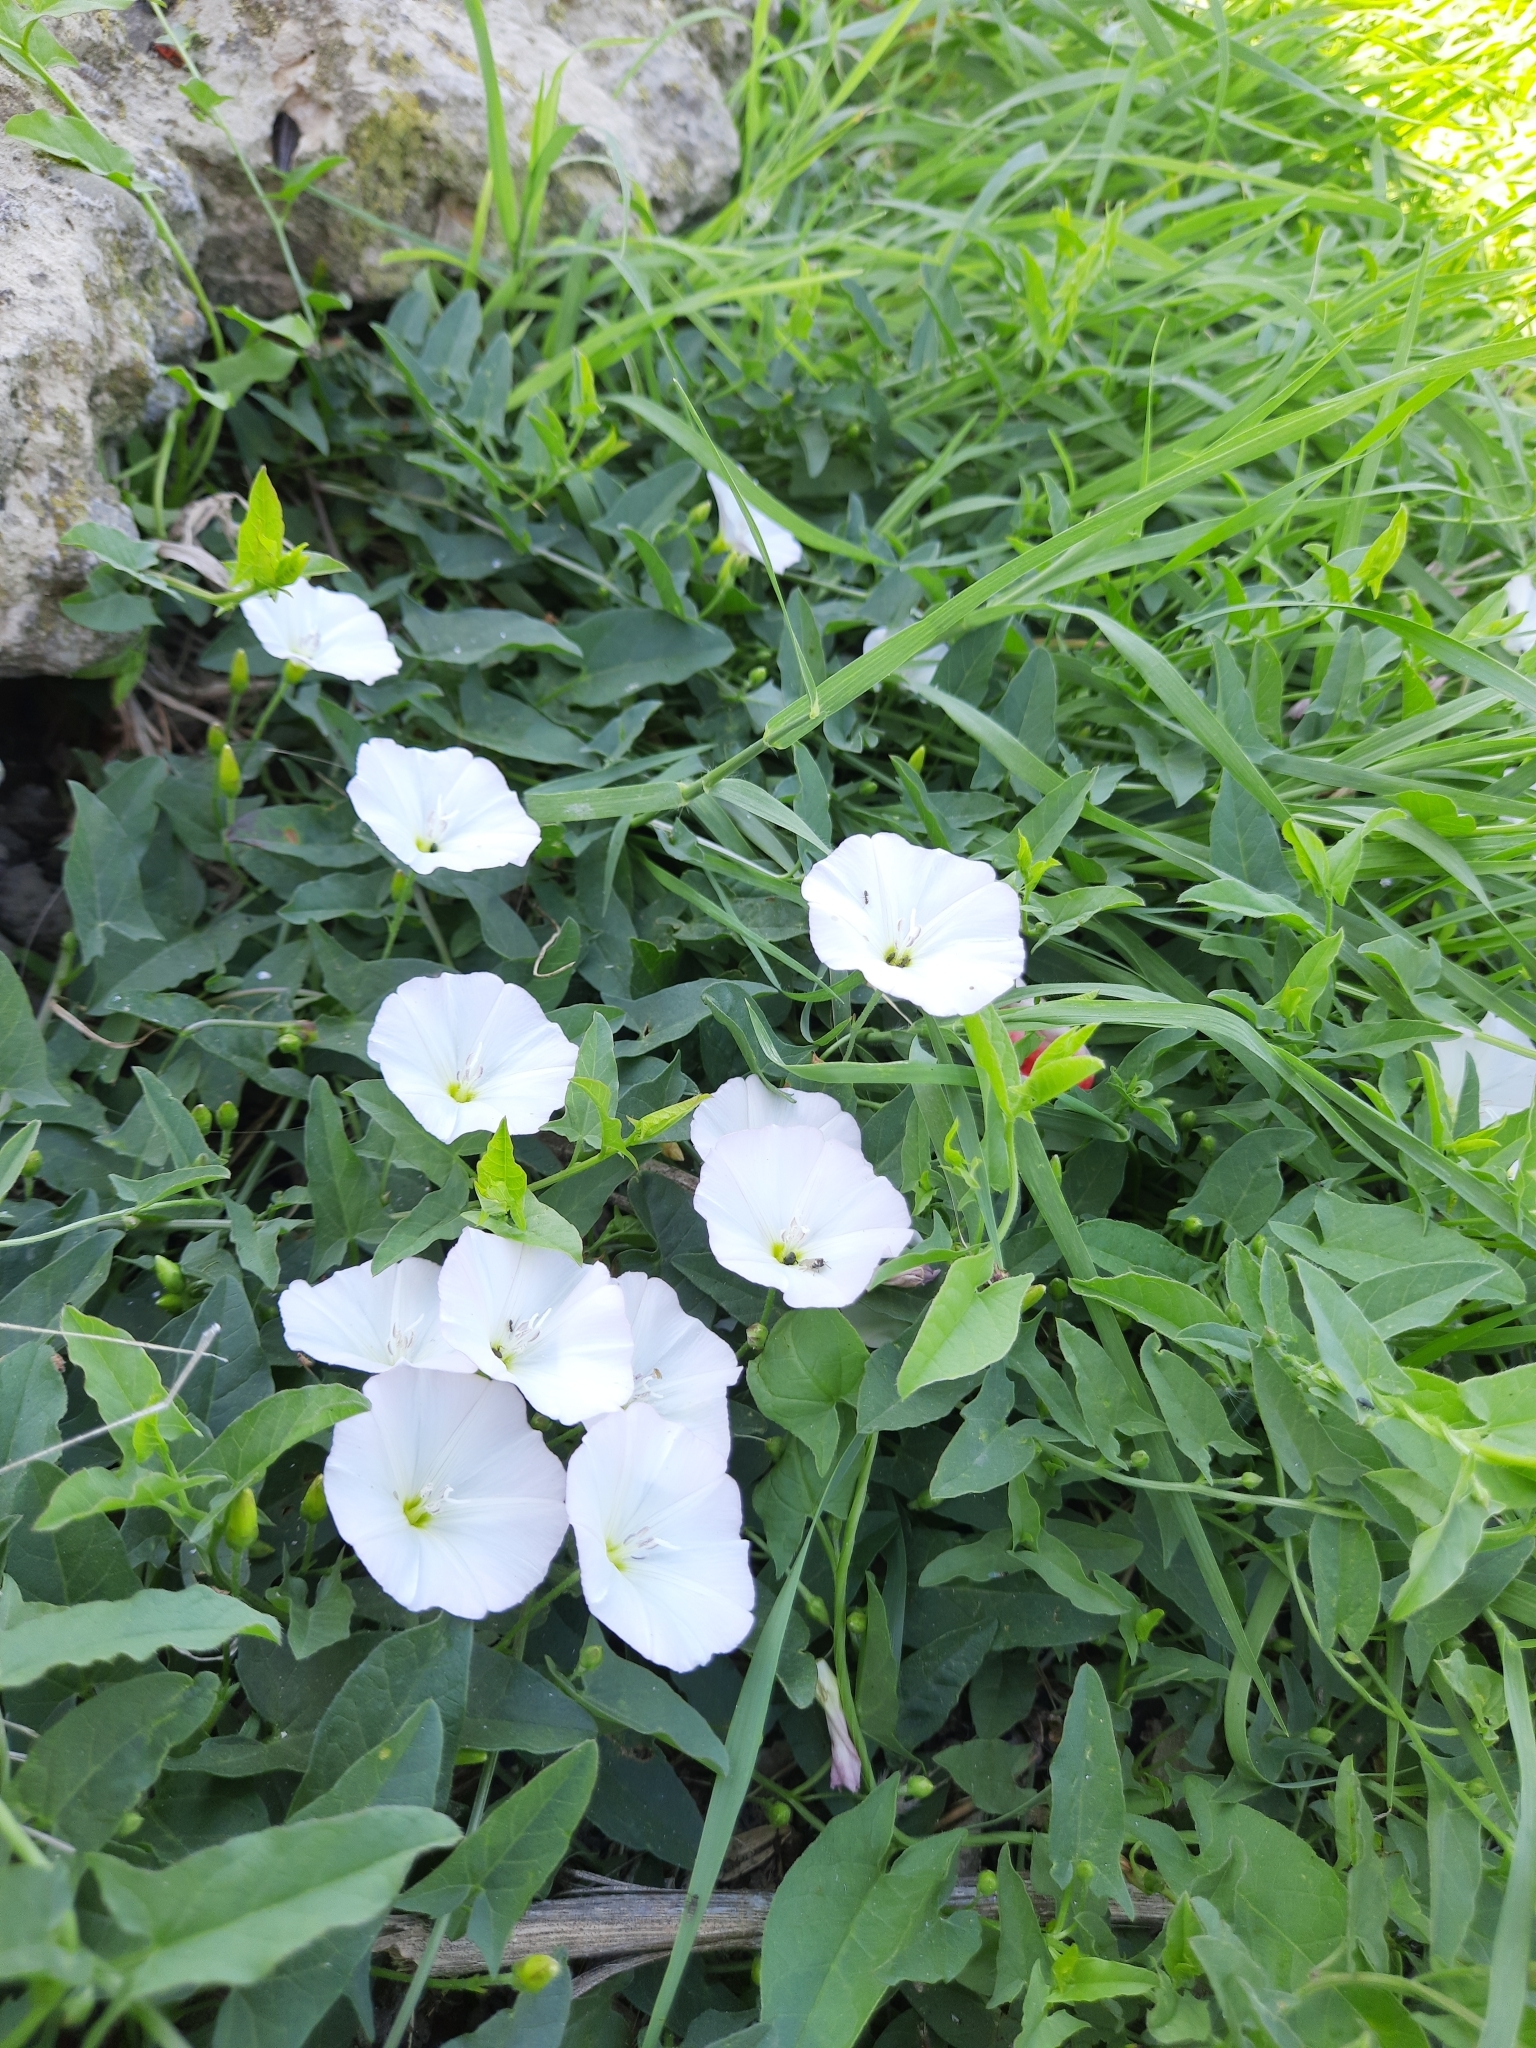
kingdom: Plantae
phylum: Tracheophyta
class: Magnoliopsida
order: Solanales
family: Convolvulaceae
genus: Convolvulus
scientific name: Convolvulus arvensis
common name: Field bindweed
